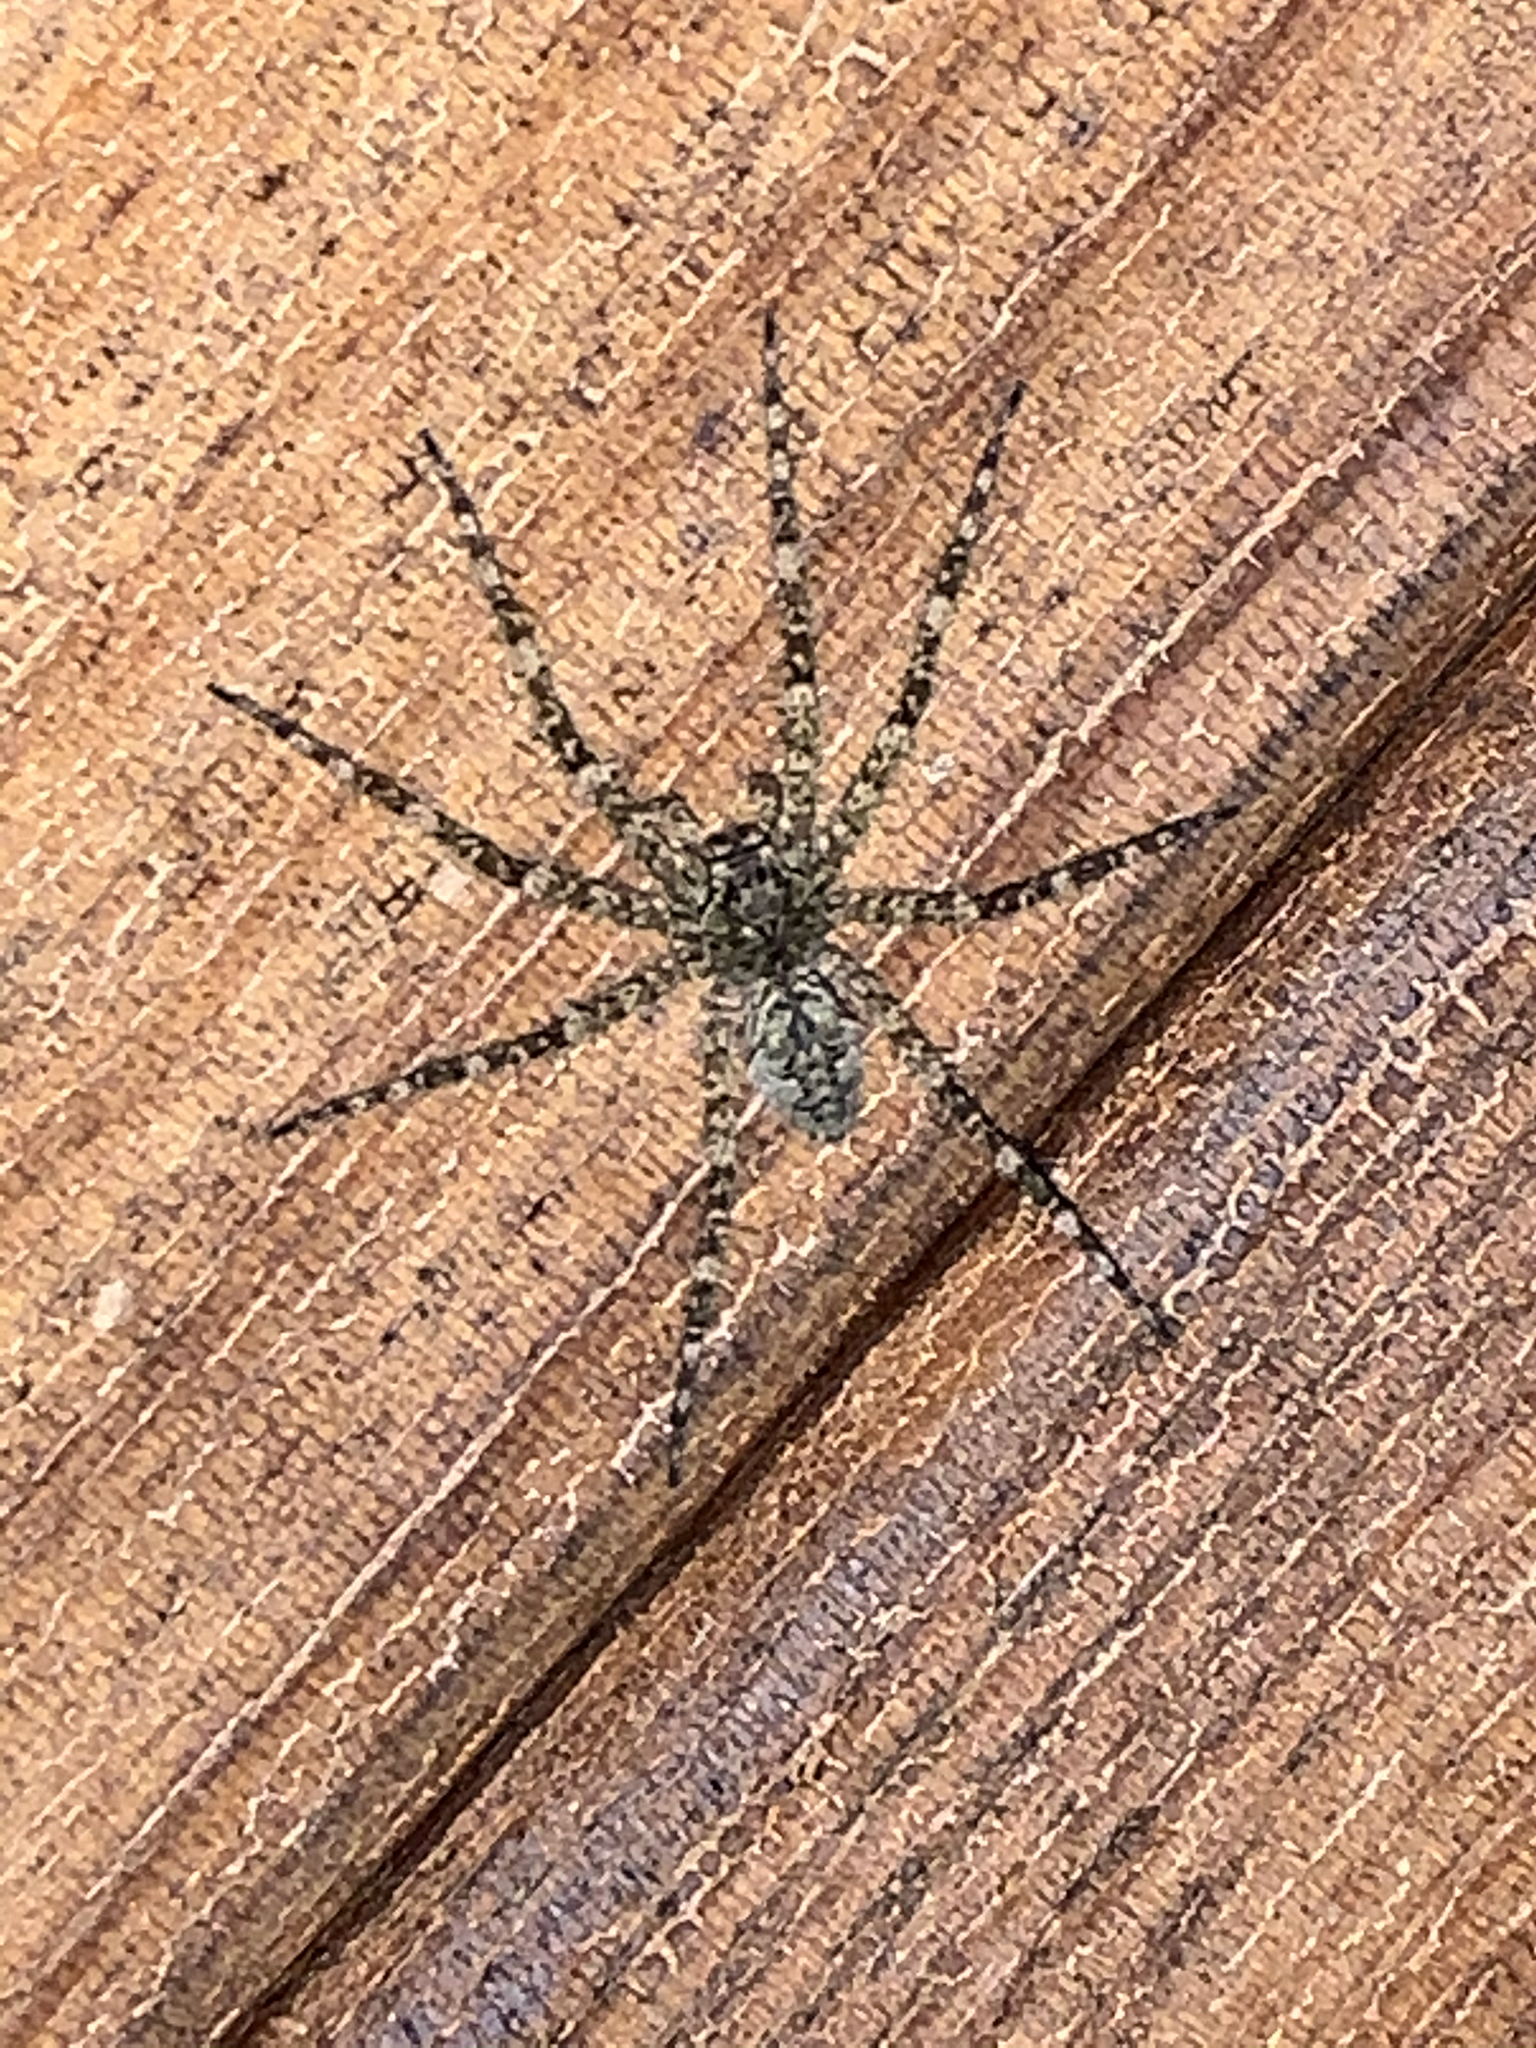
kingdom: Animalia
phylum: Arthropoda
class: Arachnida
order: Araneae
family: Pisauridae
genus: Dolomedes
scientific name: Dolomedes albineus
